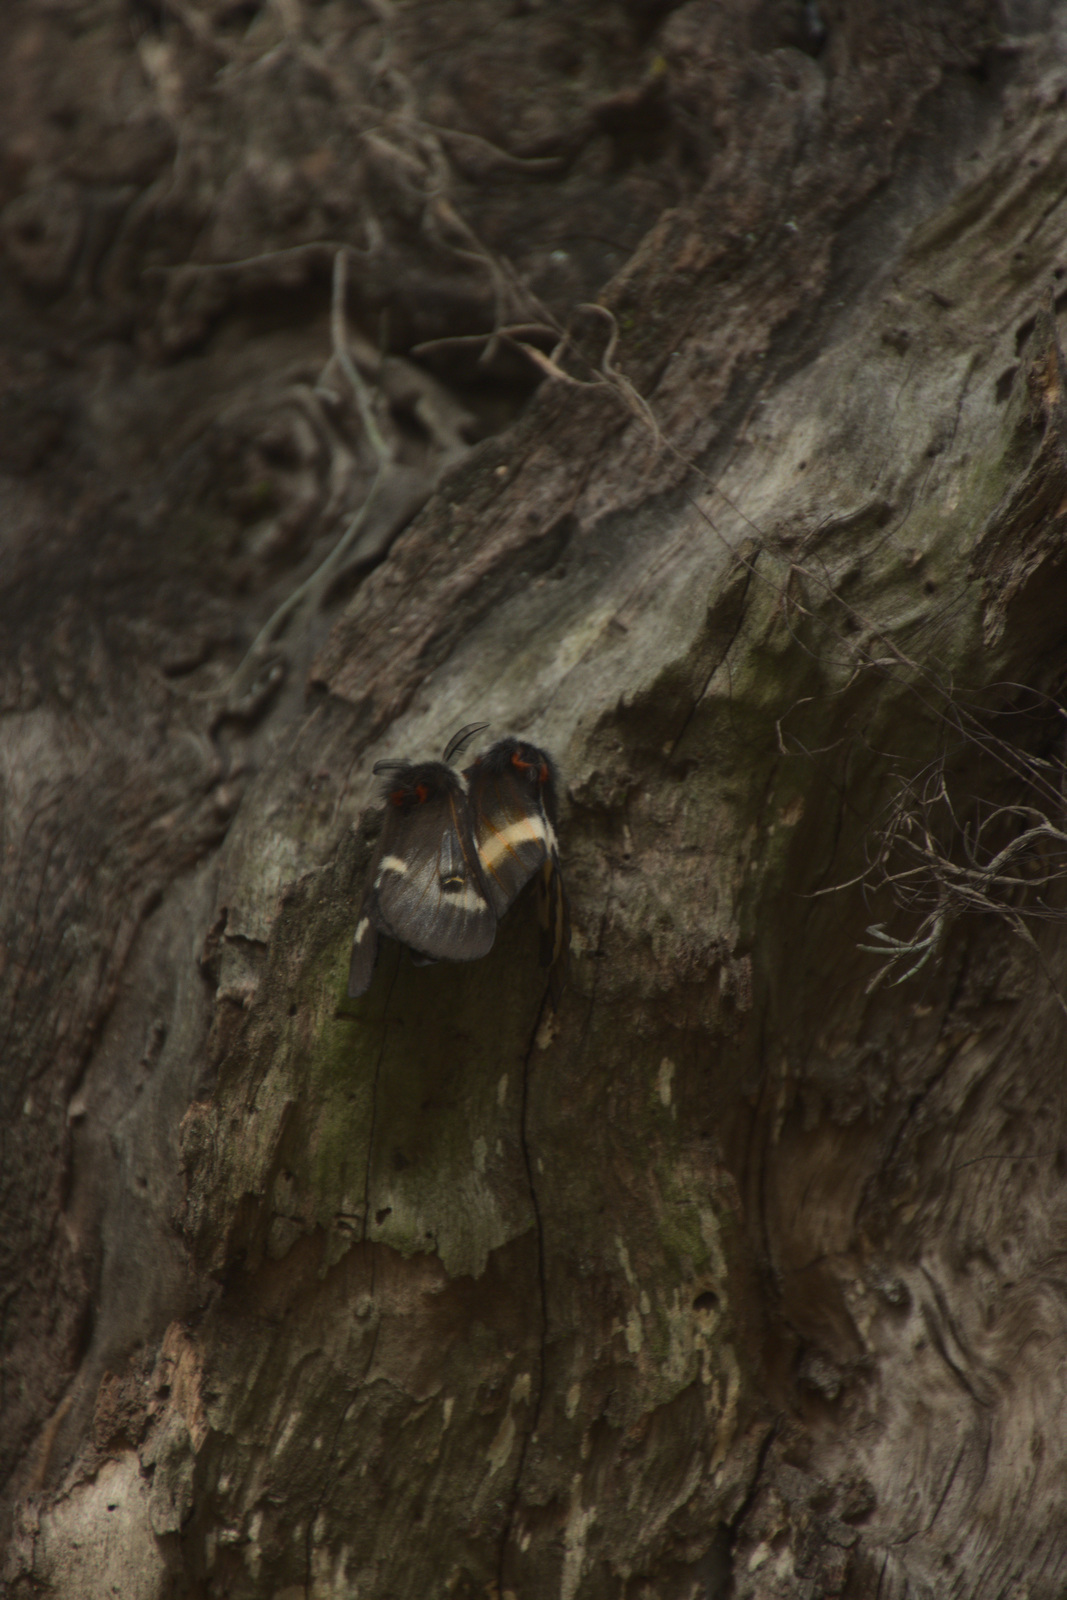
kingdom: Animalia
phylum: Arthropoda
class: Insecta
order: Lepidoptera
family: Saturniidae
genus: Hemileuca
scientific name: Hemileuca maia
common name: Eastern buckmoth
